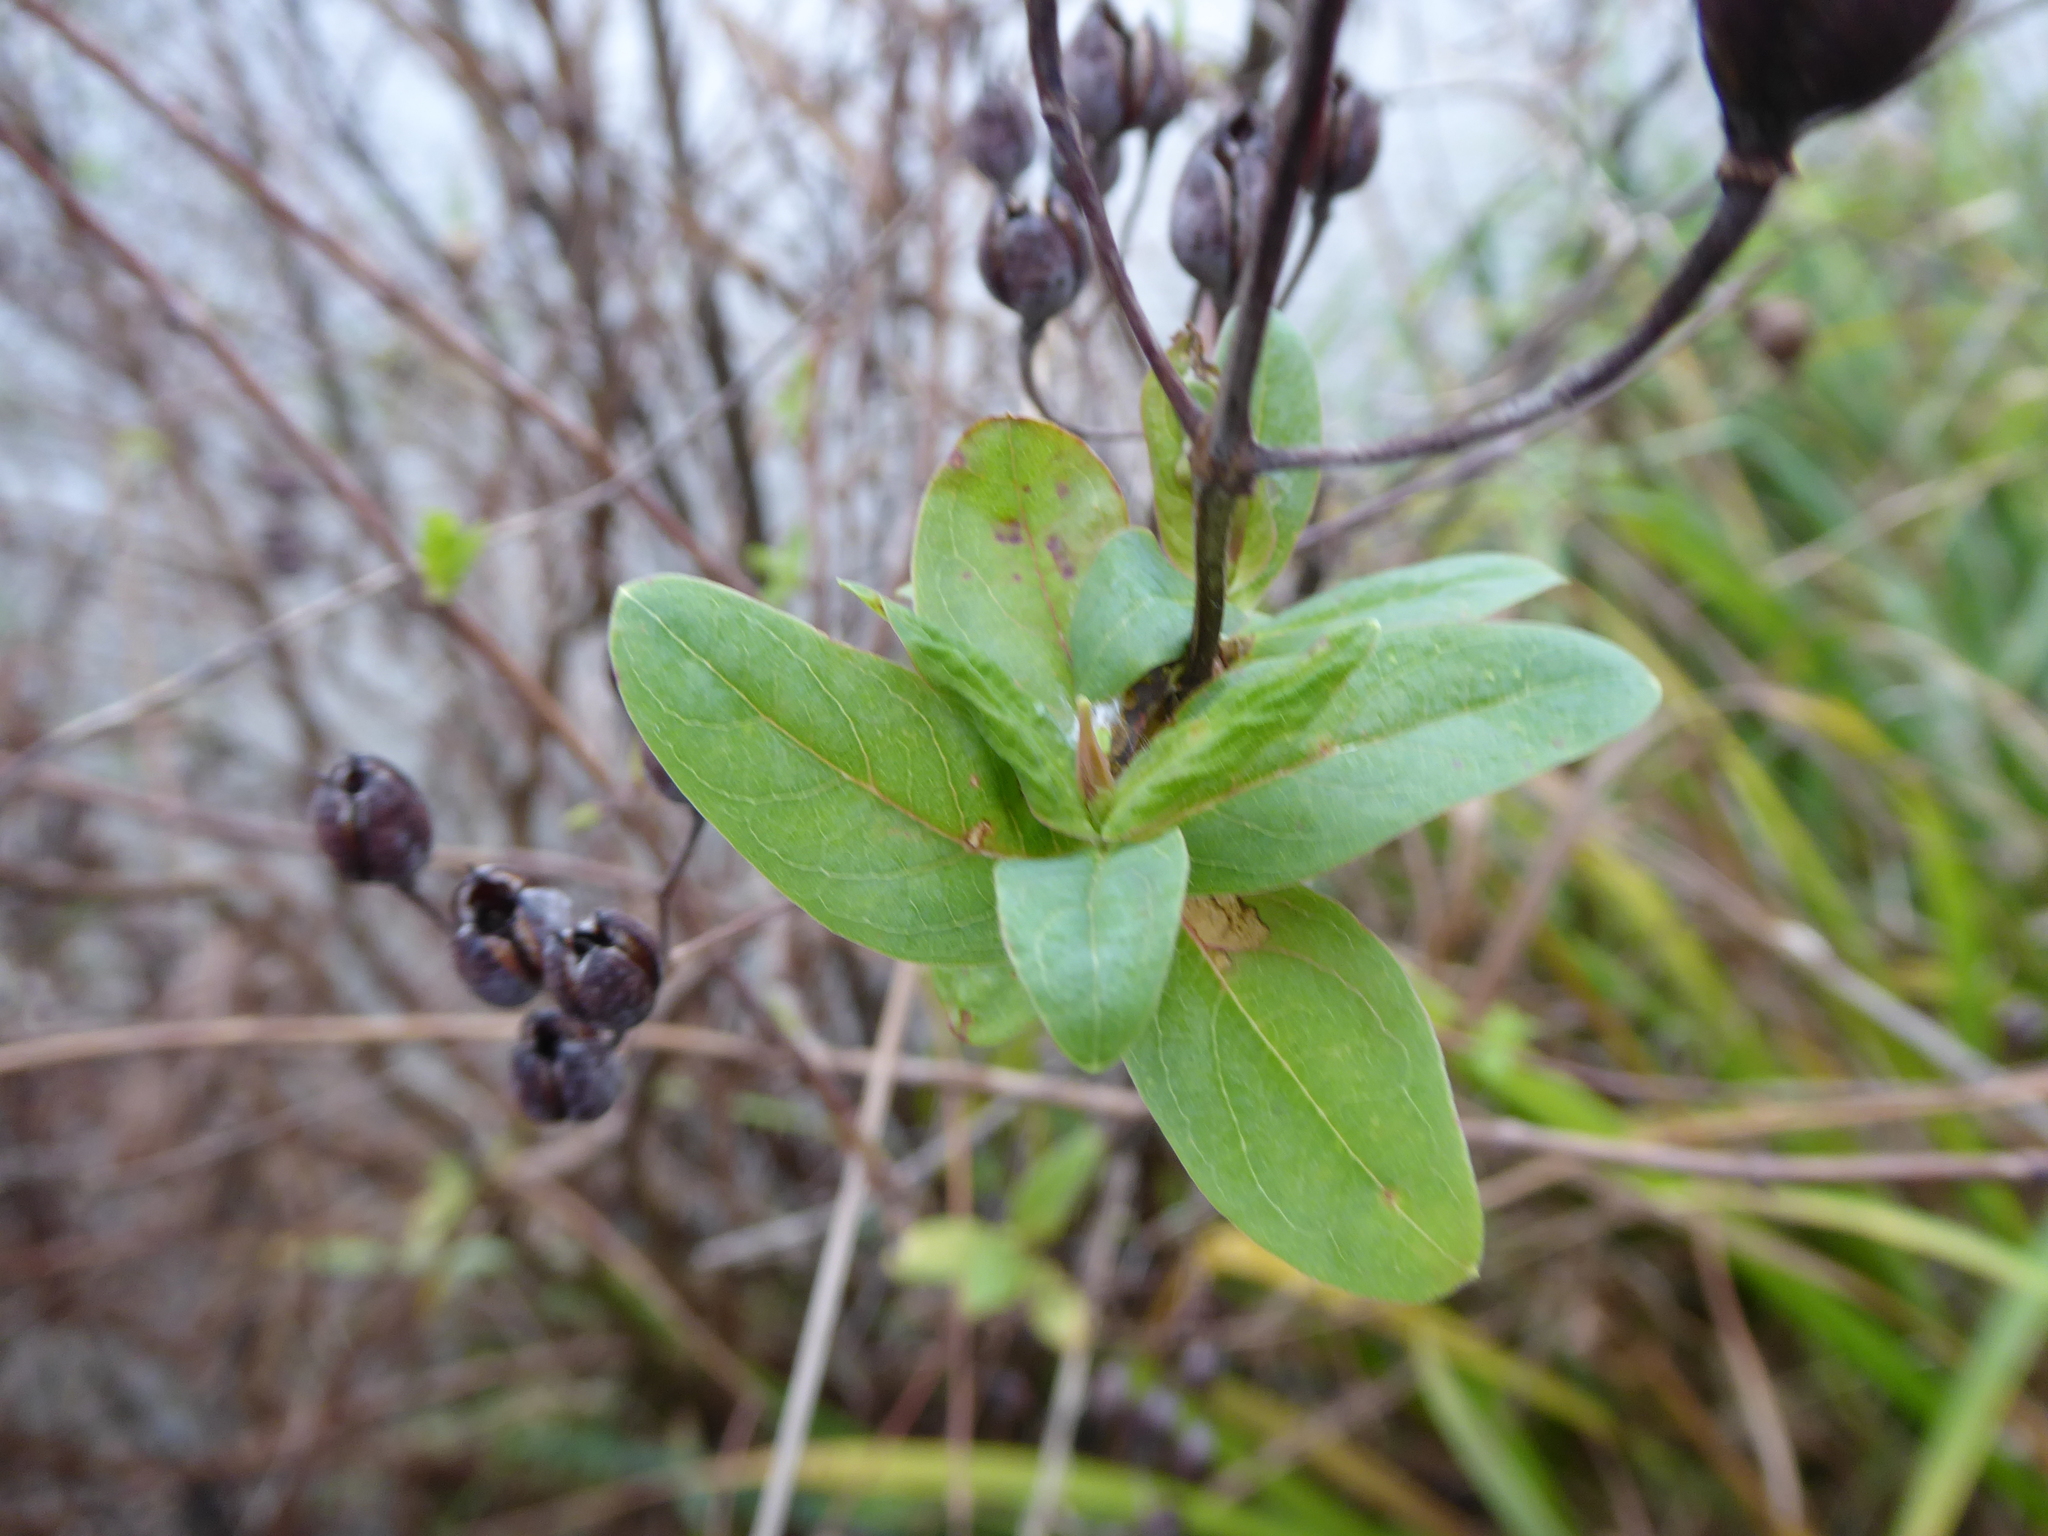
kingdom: Plantae
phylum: Tracheophyta
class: Magnoliopsida
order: Malpighiales
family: Hypericaceae
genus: Hypericum
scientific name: Hypericum hircinum
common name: Stinking tutsan
